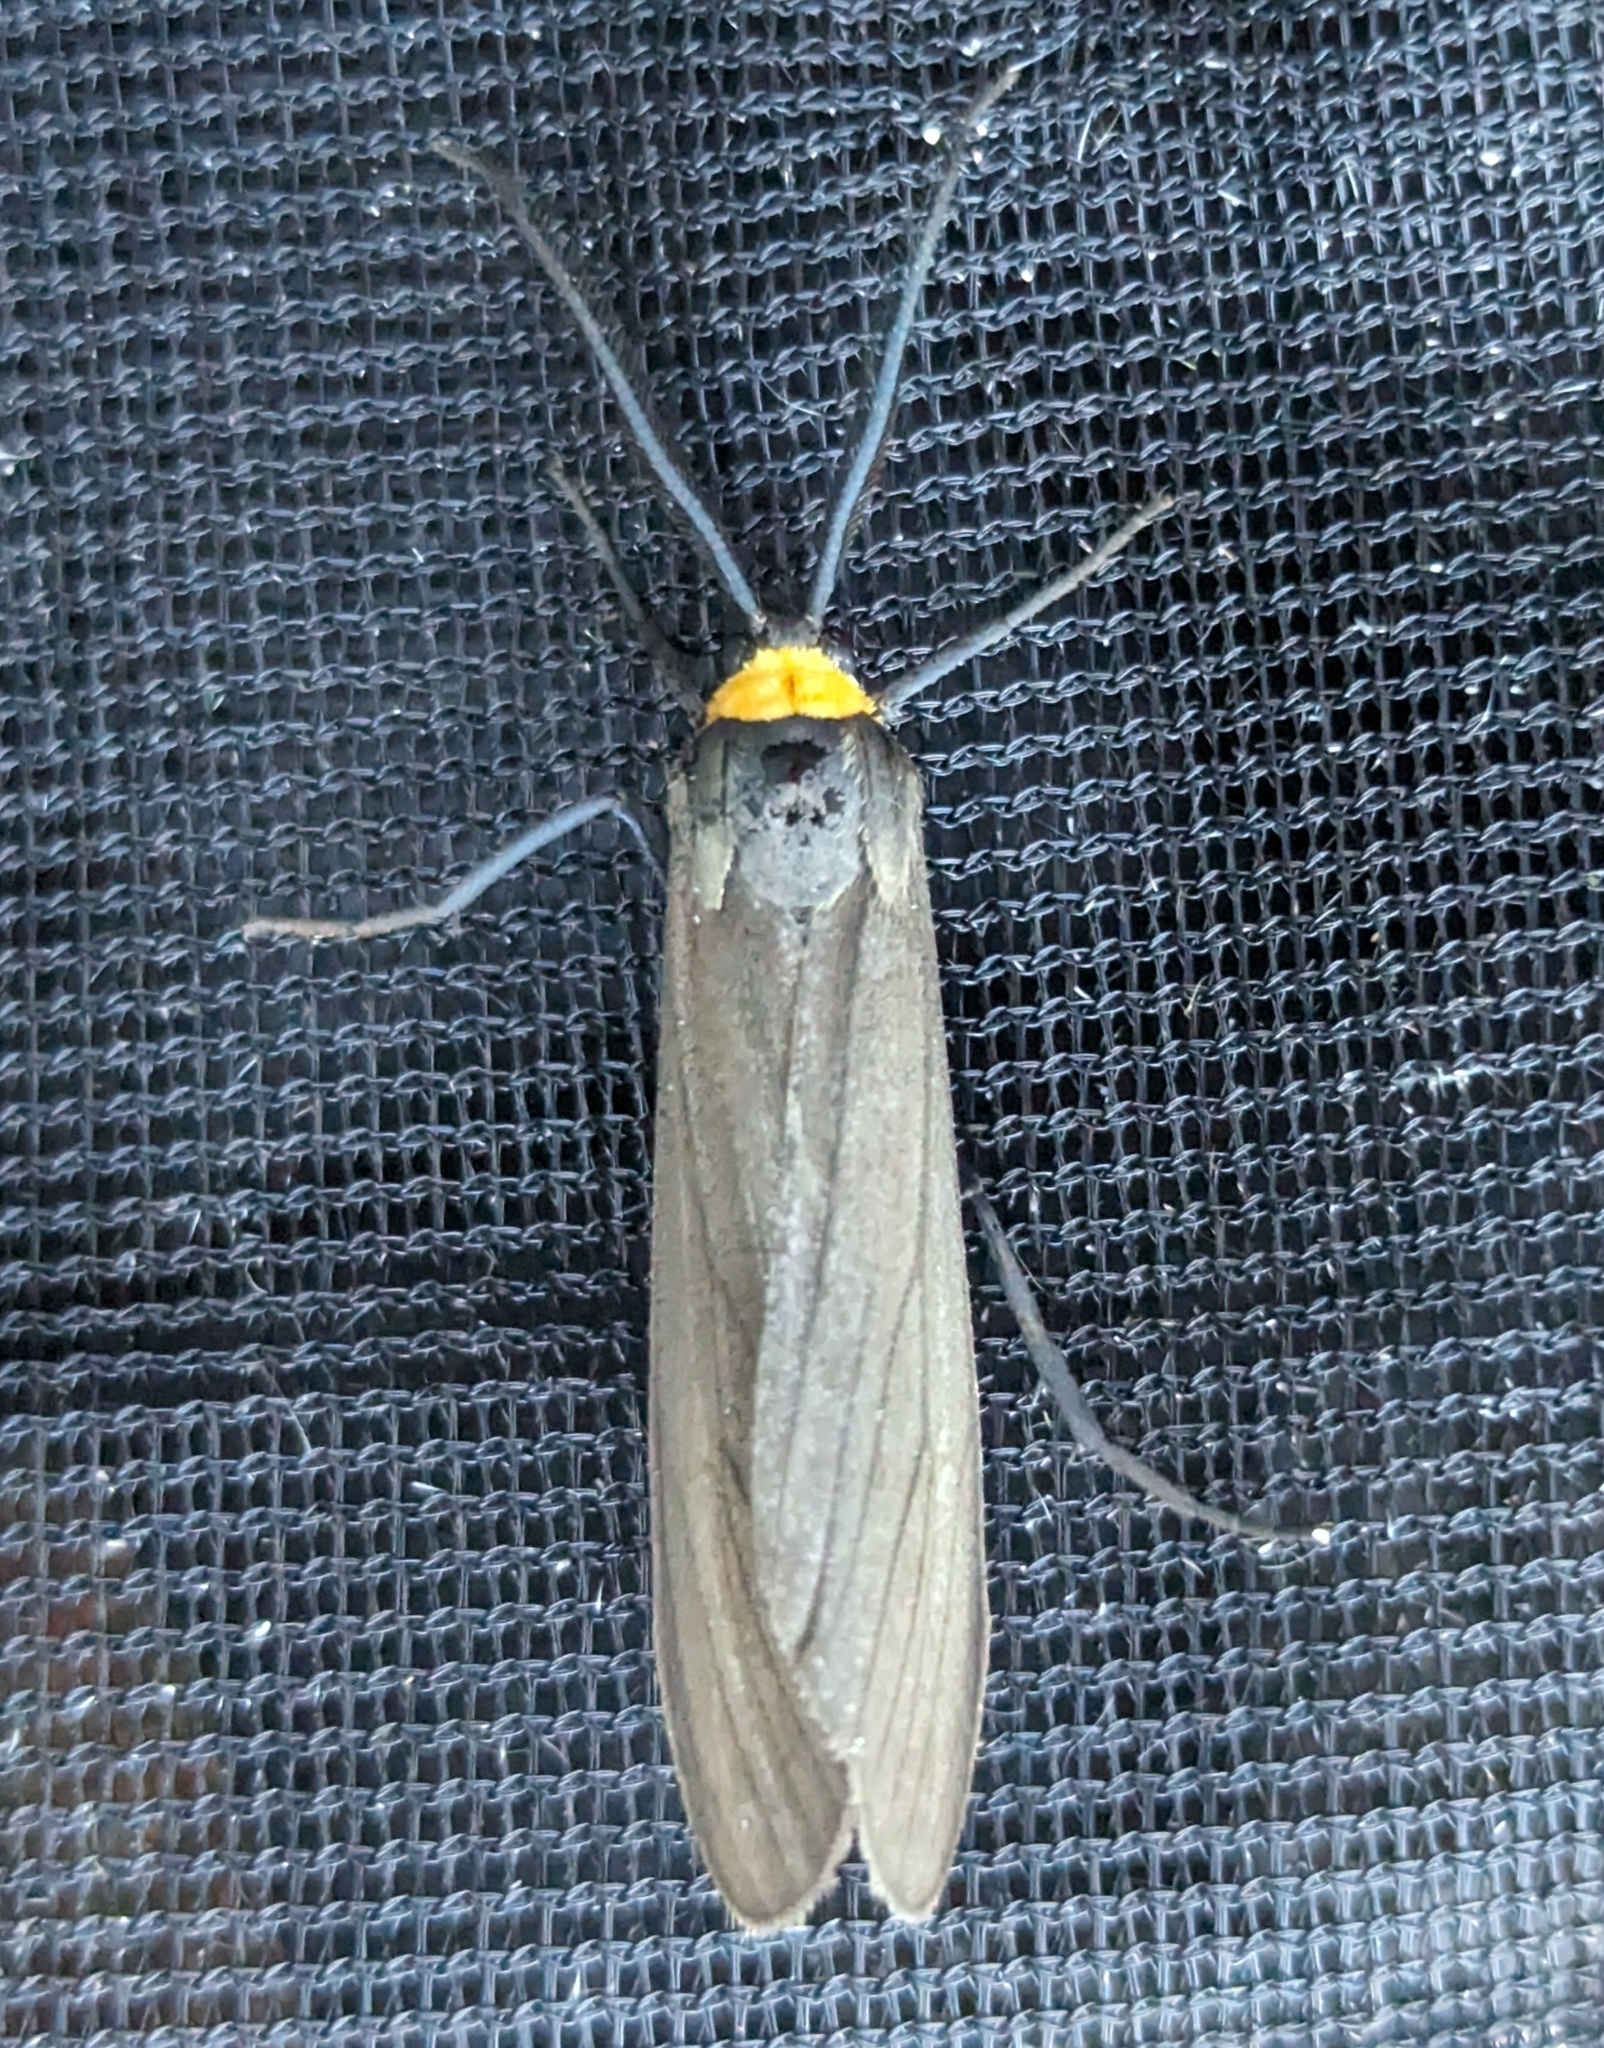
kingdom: Animalia
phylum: Arthropoda
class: Insecta
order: Lepidoptera
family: Erebidae
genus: Cisseps
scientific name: Cisseps fulvicollis
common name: Yellow-collared scape moth
